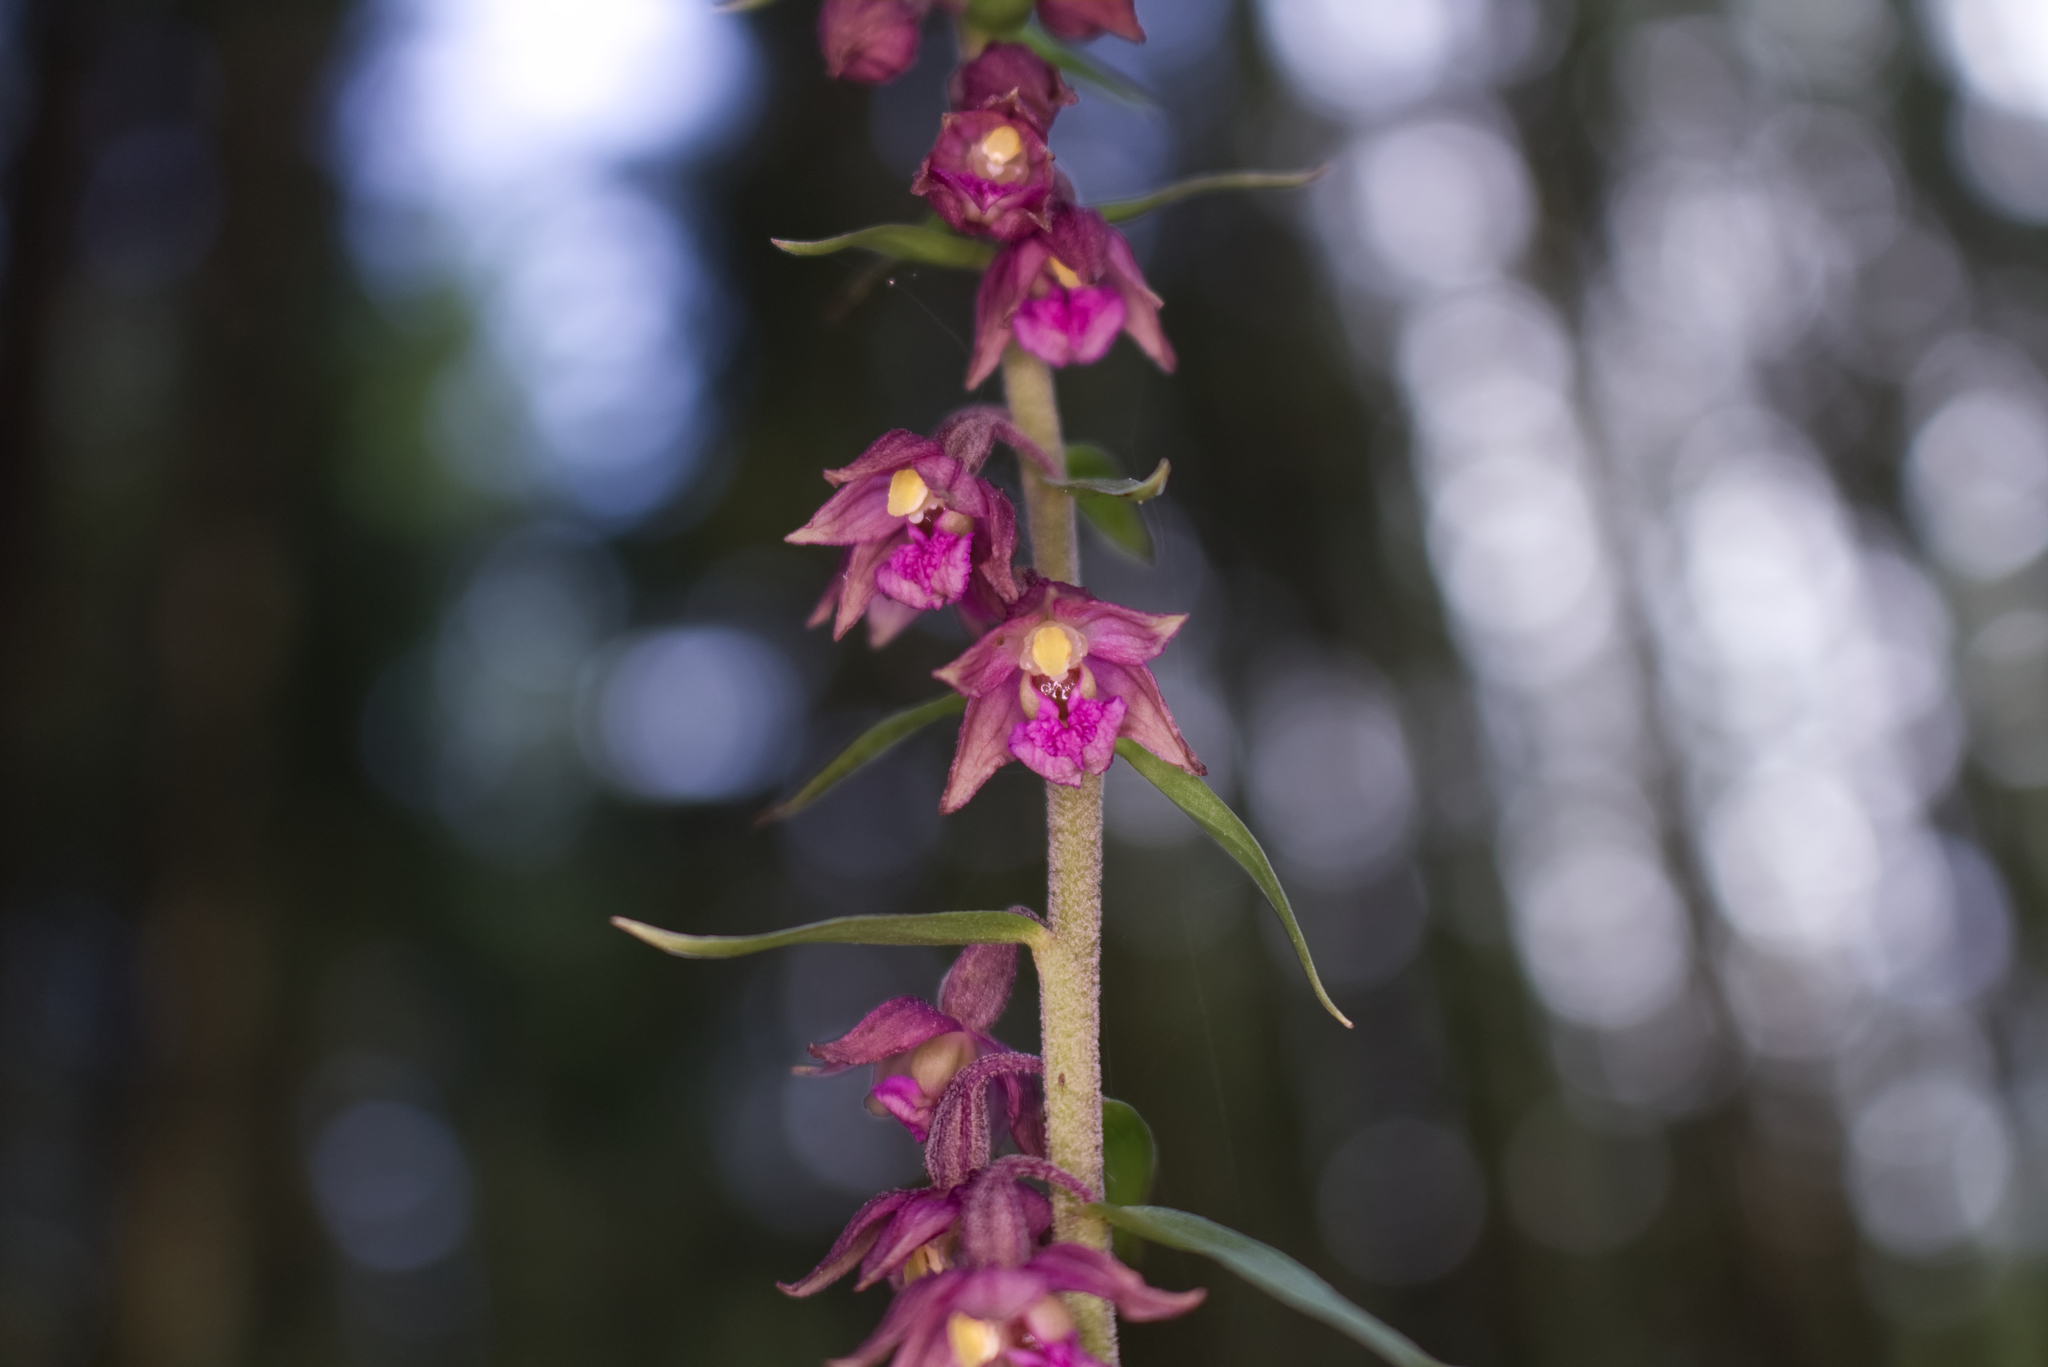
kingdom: Plantae
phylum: Tracheophyta
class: Liliopsida
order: Asparagales
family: Orchidaceae
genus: Epipactis
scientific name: Epipactis atrorubens
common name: Dark-red helleborine
